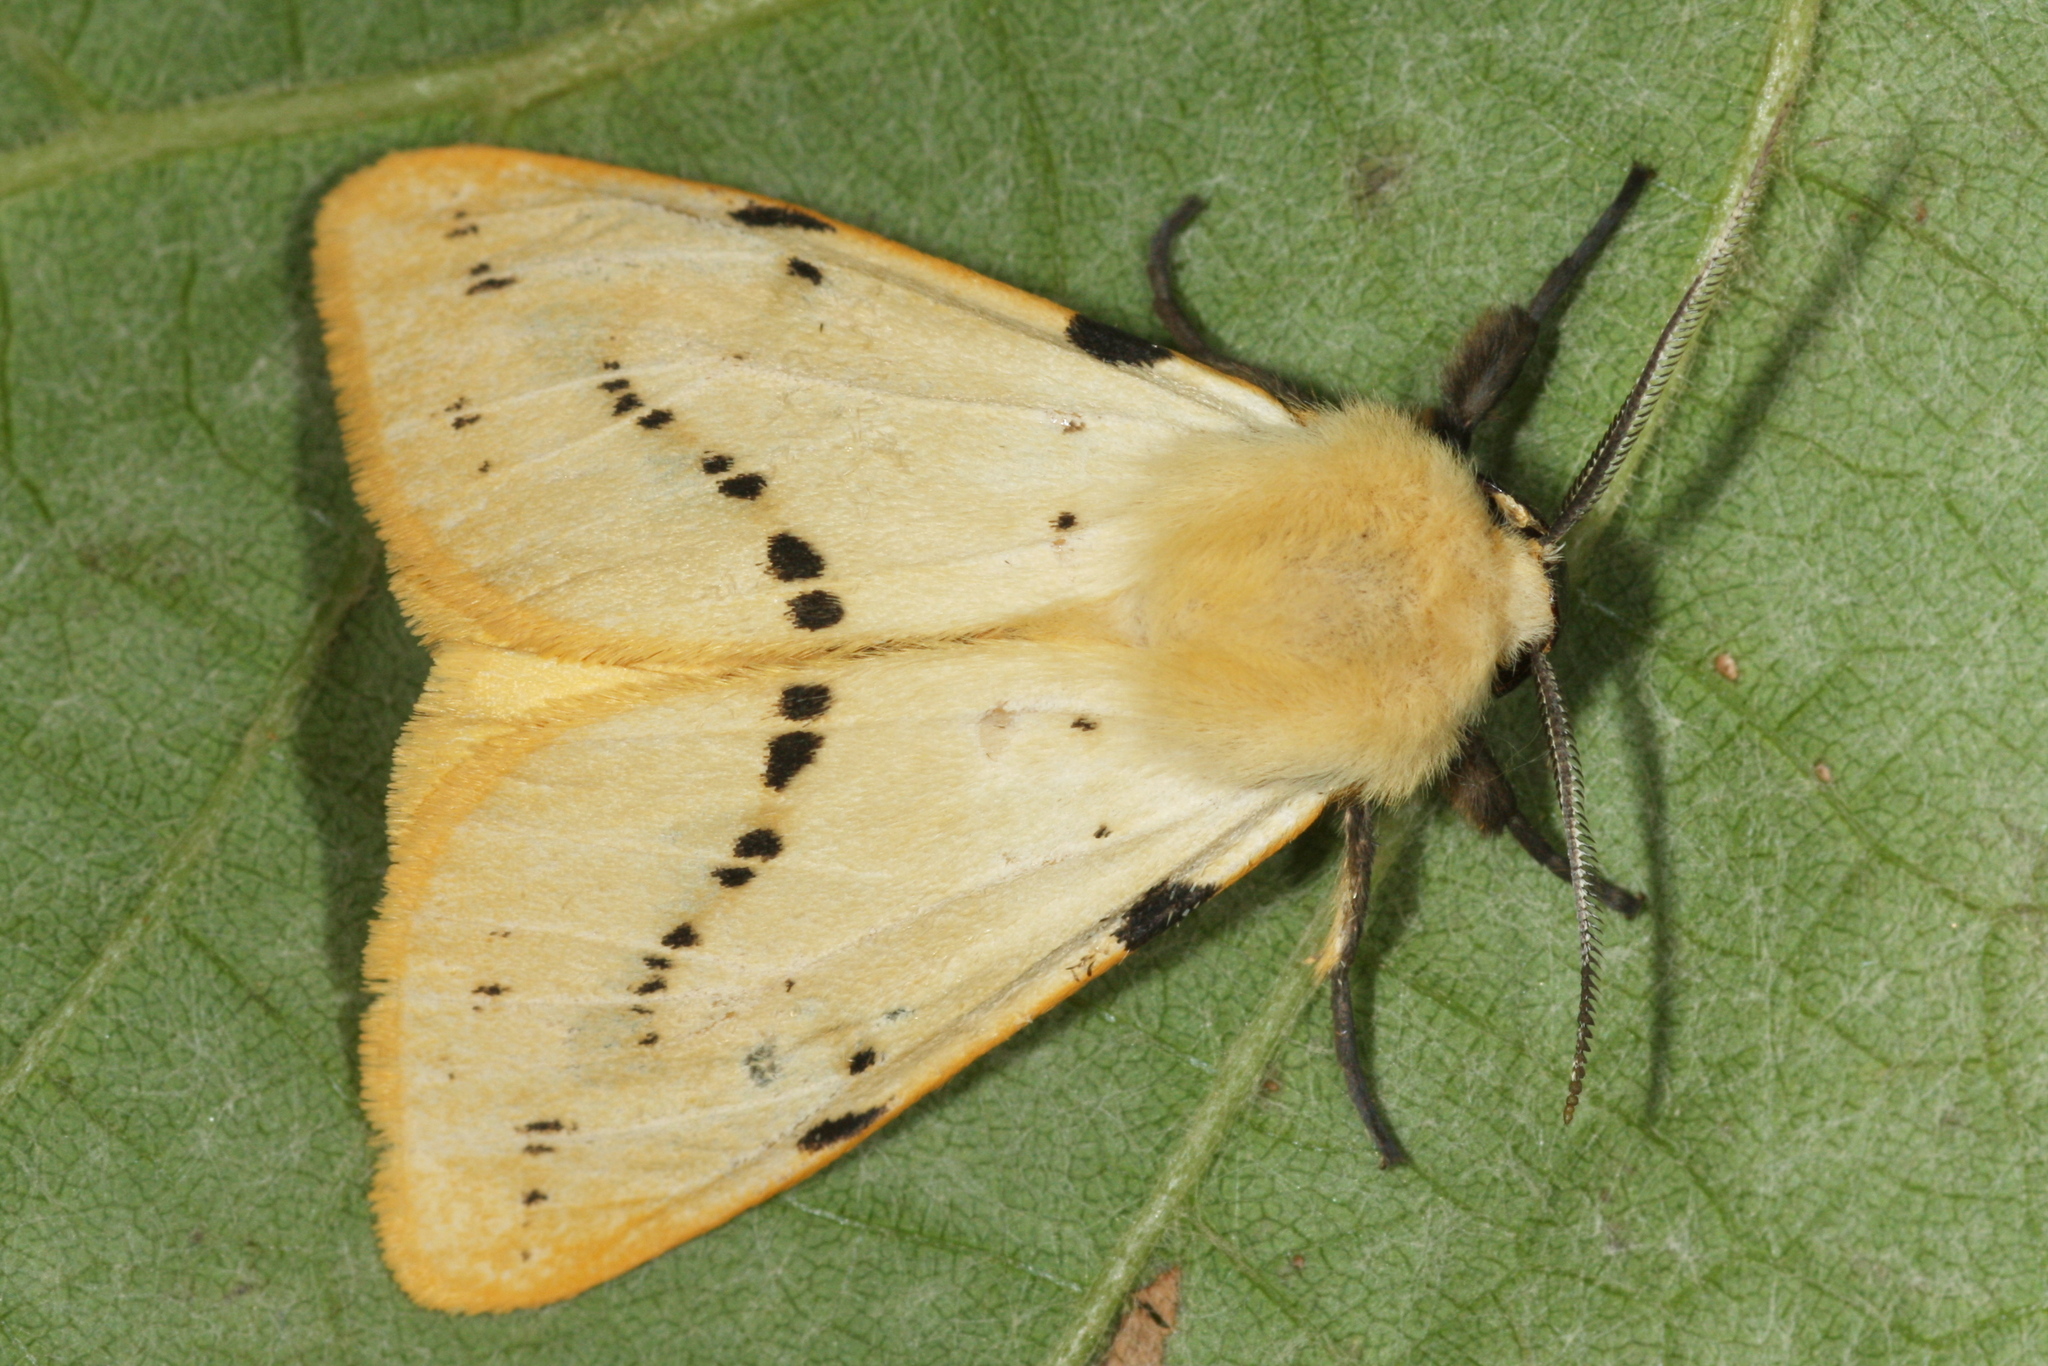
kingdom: Animalia
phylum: Arthropoda
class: Insecta
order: Lepidoptera
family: Erebidae
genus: Spilarctia
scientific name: Spilarctia lutea
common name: Buff ermine
